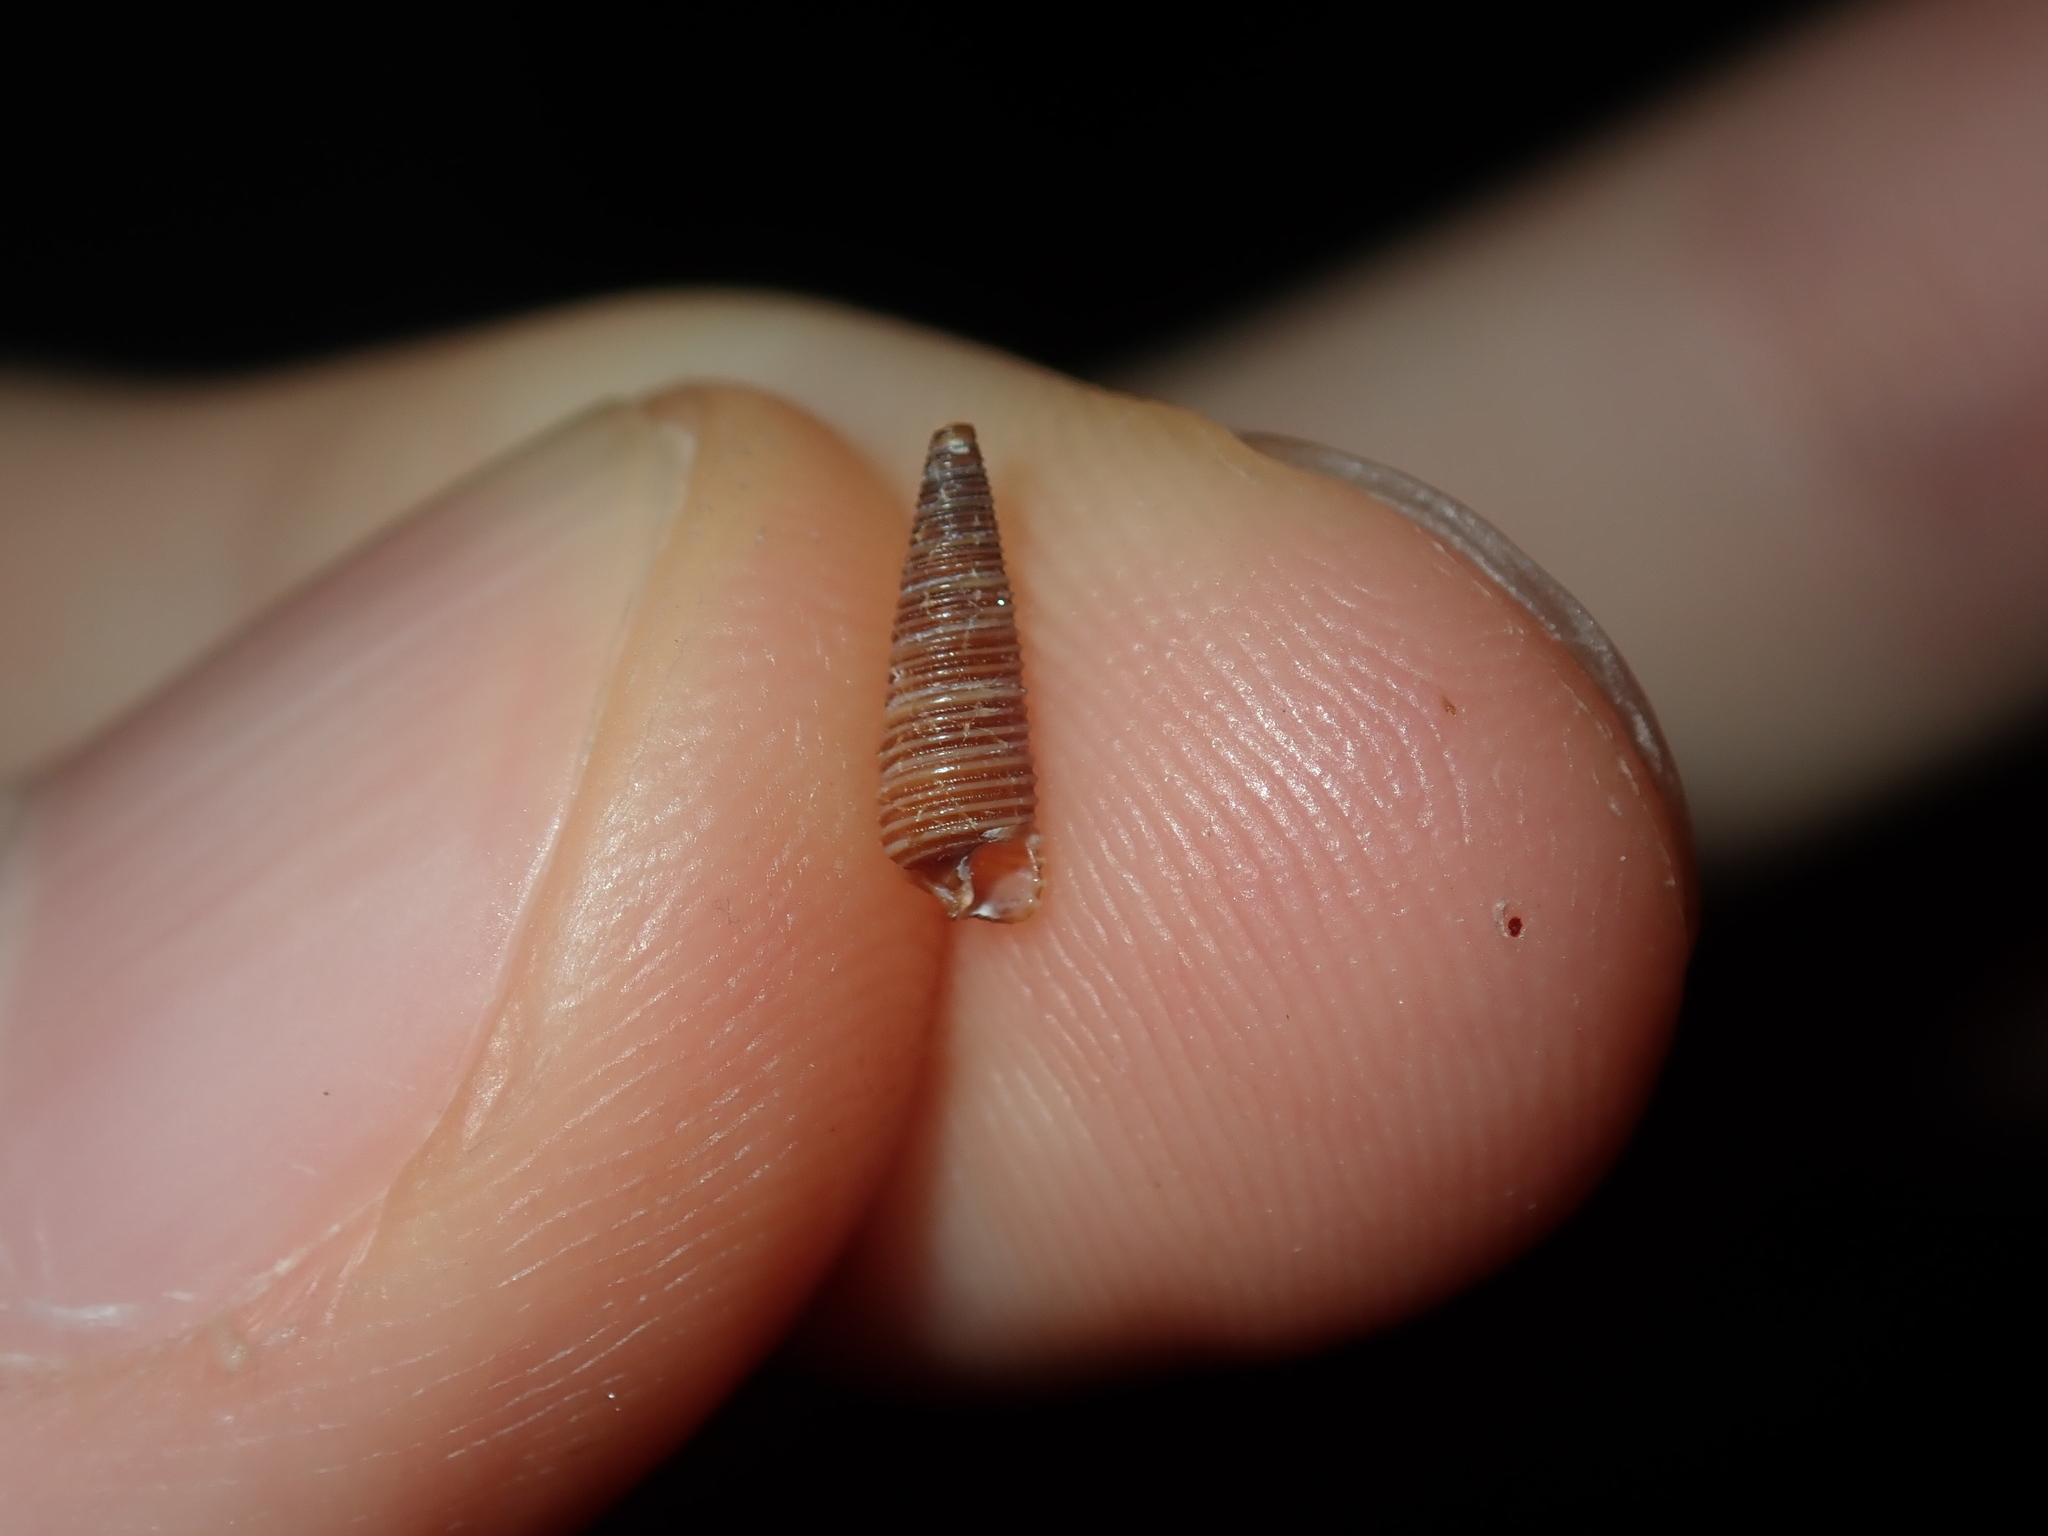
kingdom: Animalia
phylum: Mollusca
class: Gastropoda
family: Cerithiopsidae
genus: Seila
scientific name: Seila atkinsoni
